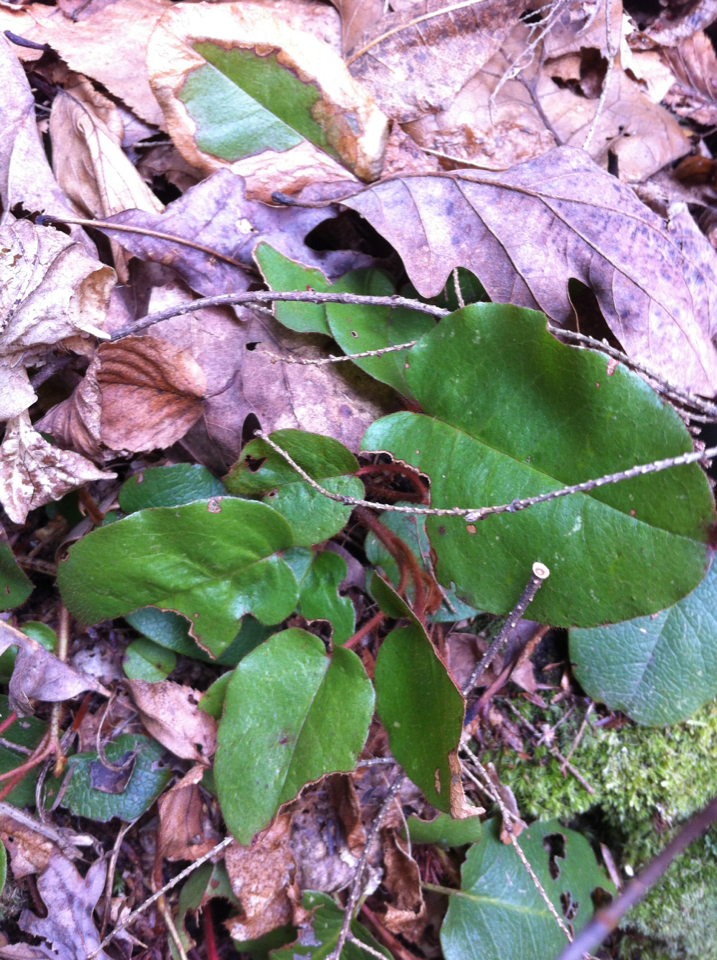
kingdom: Plantae
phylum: Tracheophyta
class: Magnoliopsida
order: Ericales
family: Ericaceae
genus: Epigaea
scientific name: Epigaea repens
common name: Gravelroot
